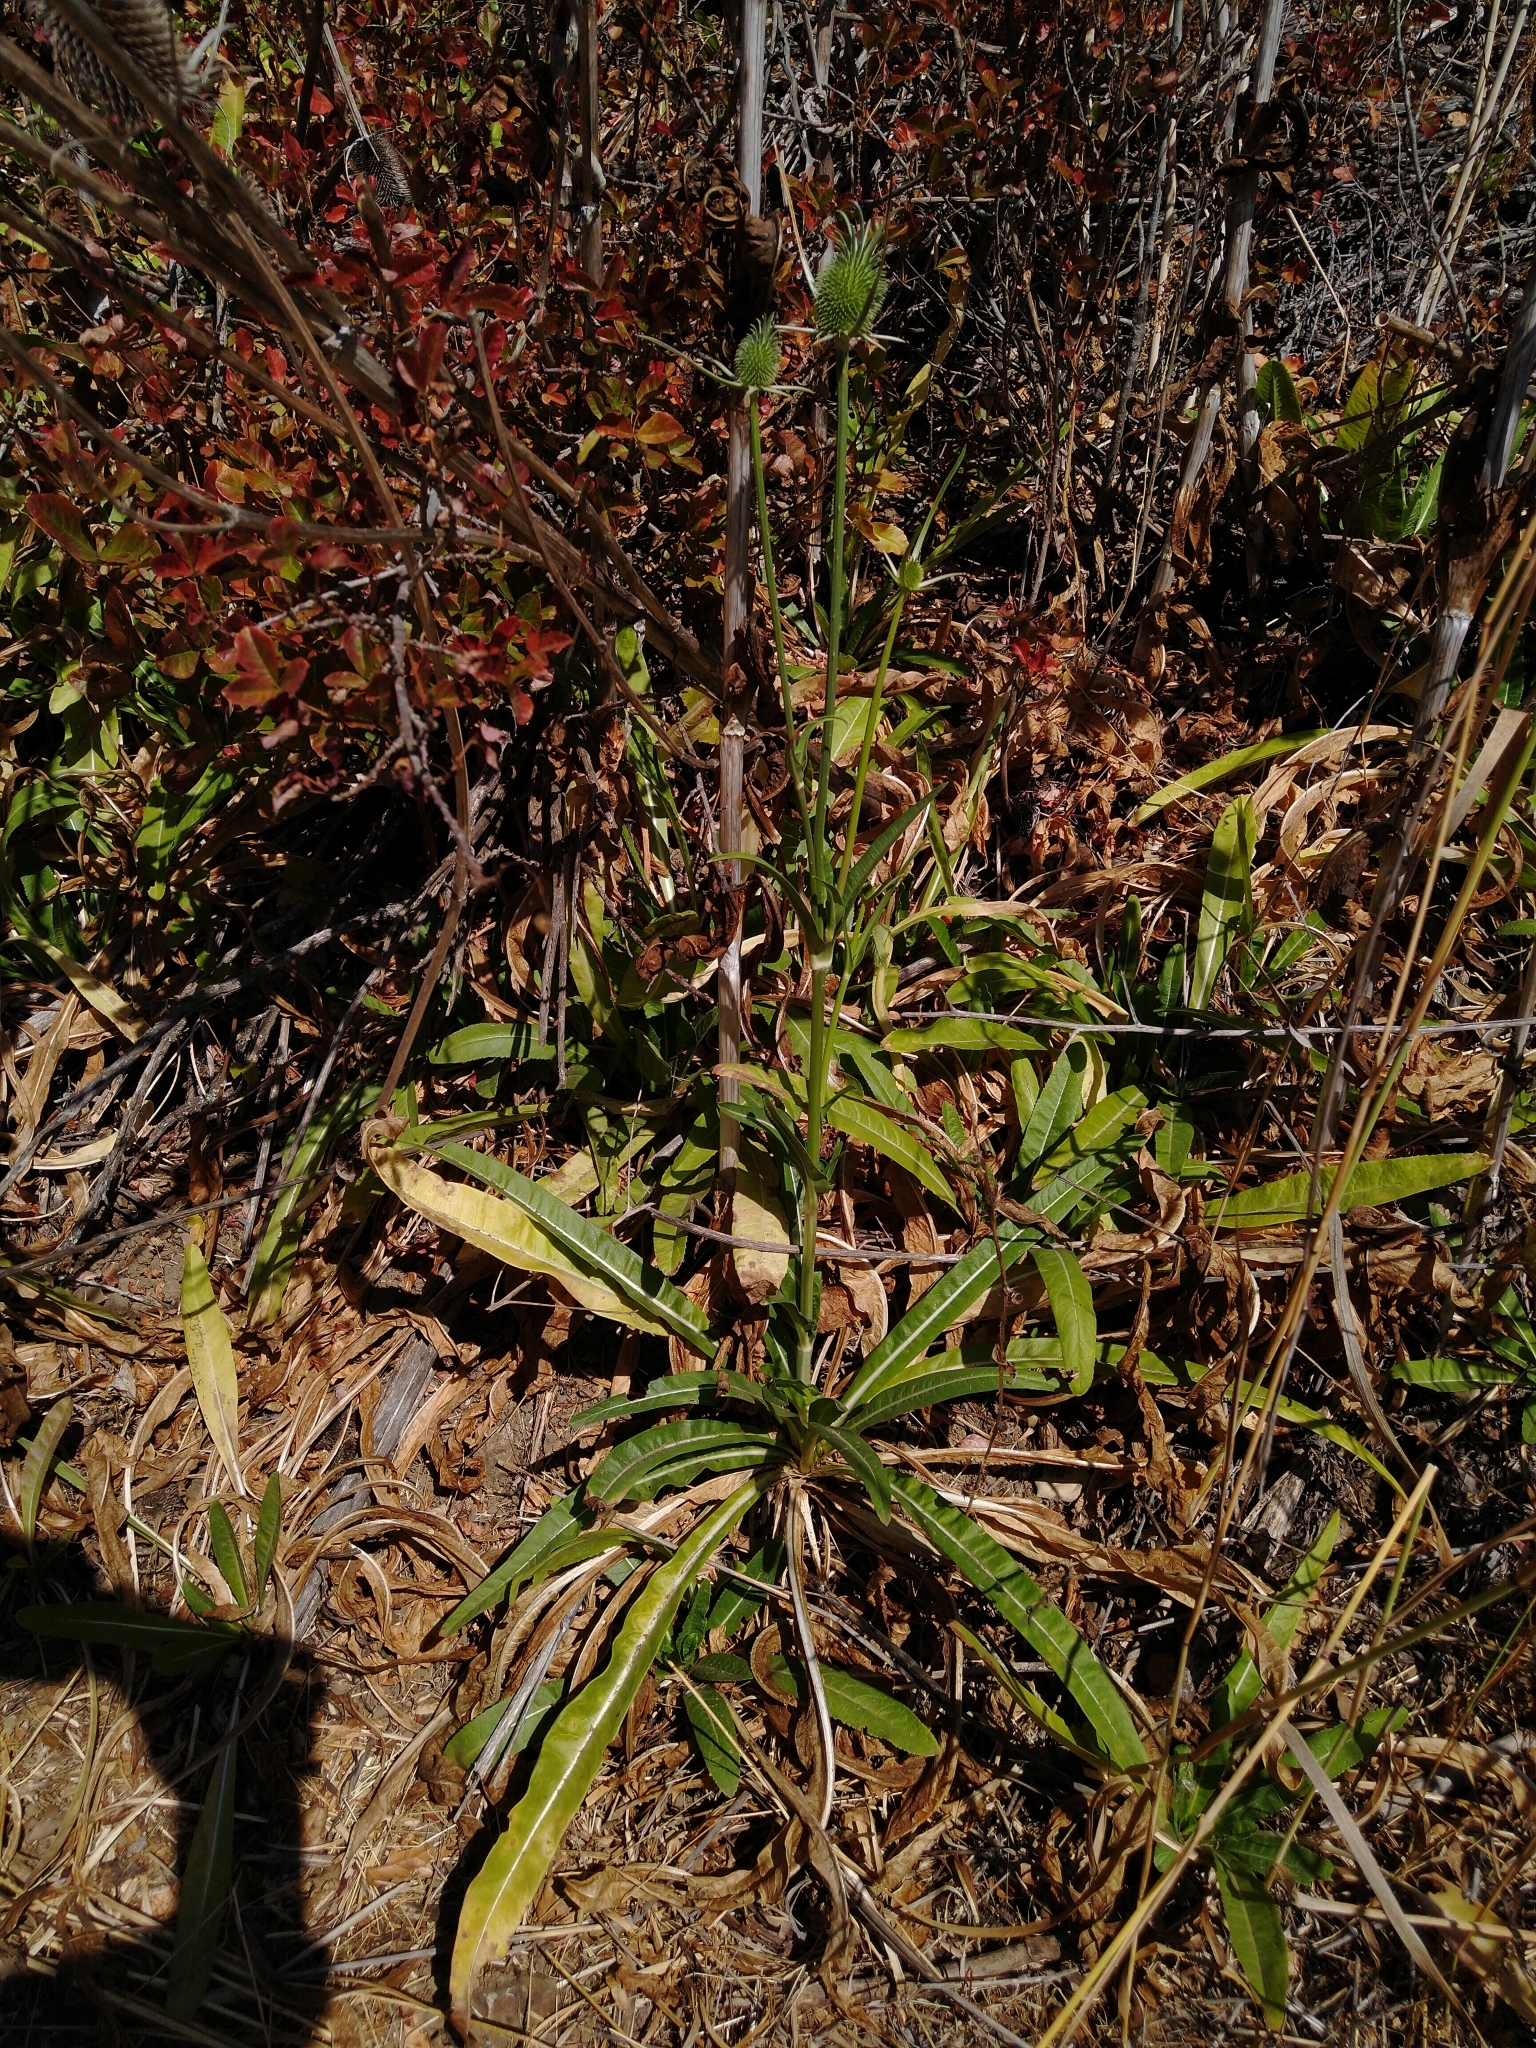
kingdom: Plantae
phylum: Tracheophyta
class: Magnoliopsida
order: Dipsacales
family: Caprifoliaceae
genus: Dipsacus
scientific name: Dipsacus sativus
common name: Fuller's teasel
